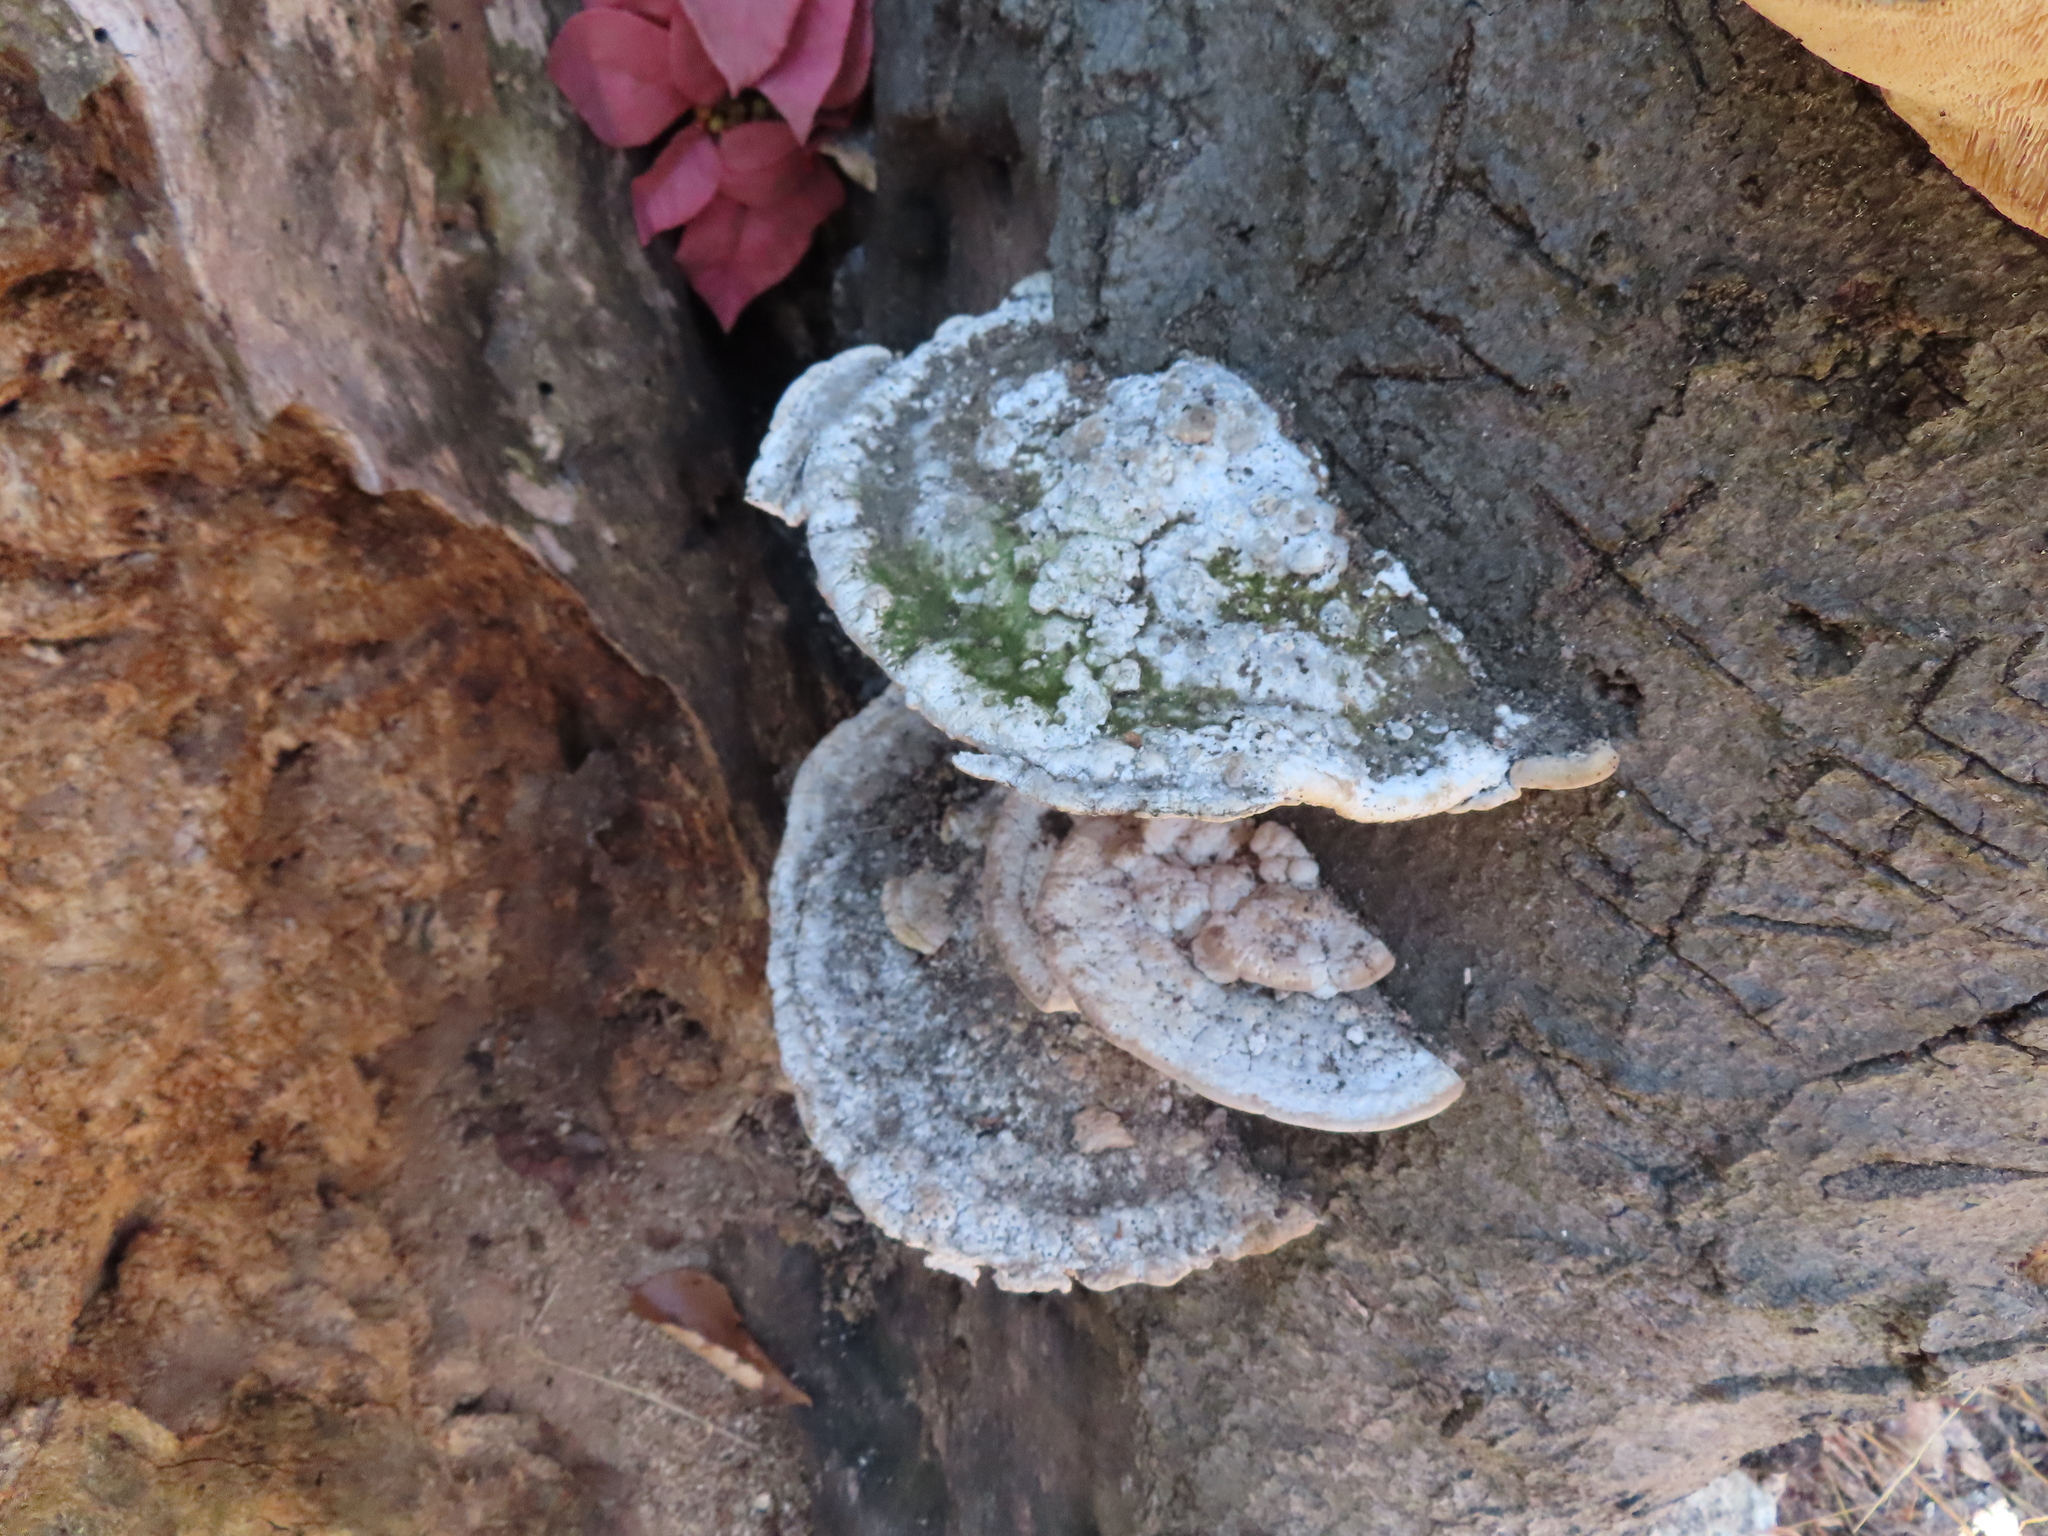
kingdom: Fungi
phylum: Basidiomycota
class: Agaricomycetes
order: Polyporales
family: Polyporaceae
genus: Trametes
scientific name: Trametes gibbosa
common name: Lumpy bracket
